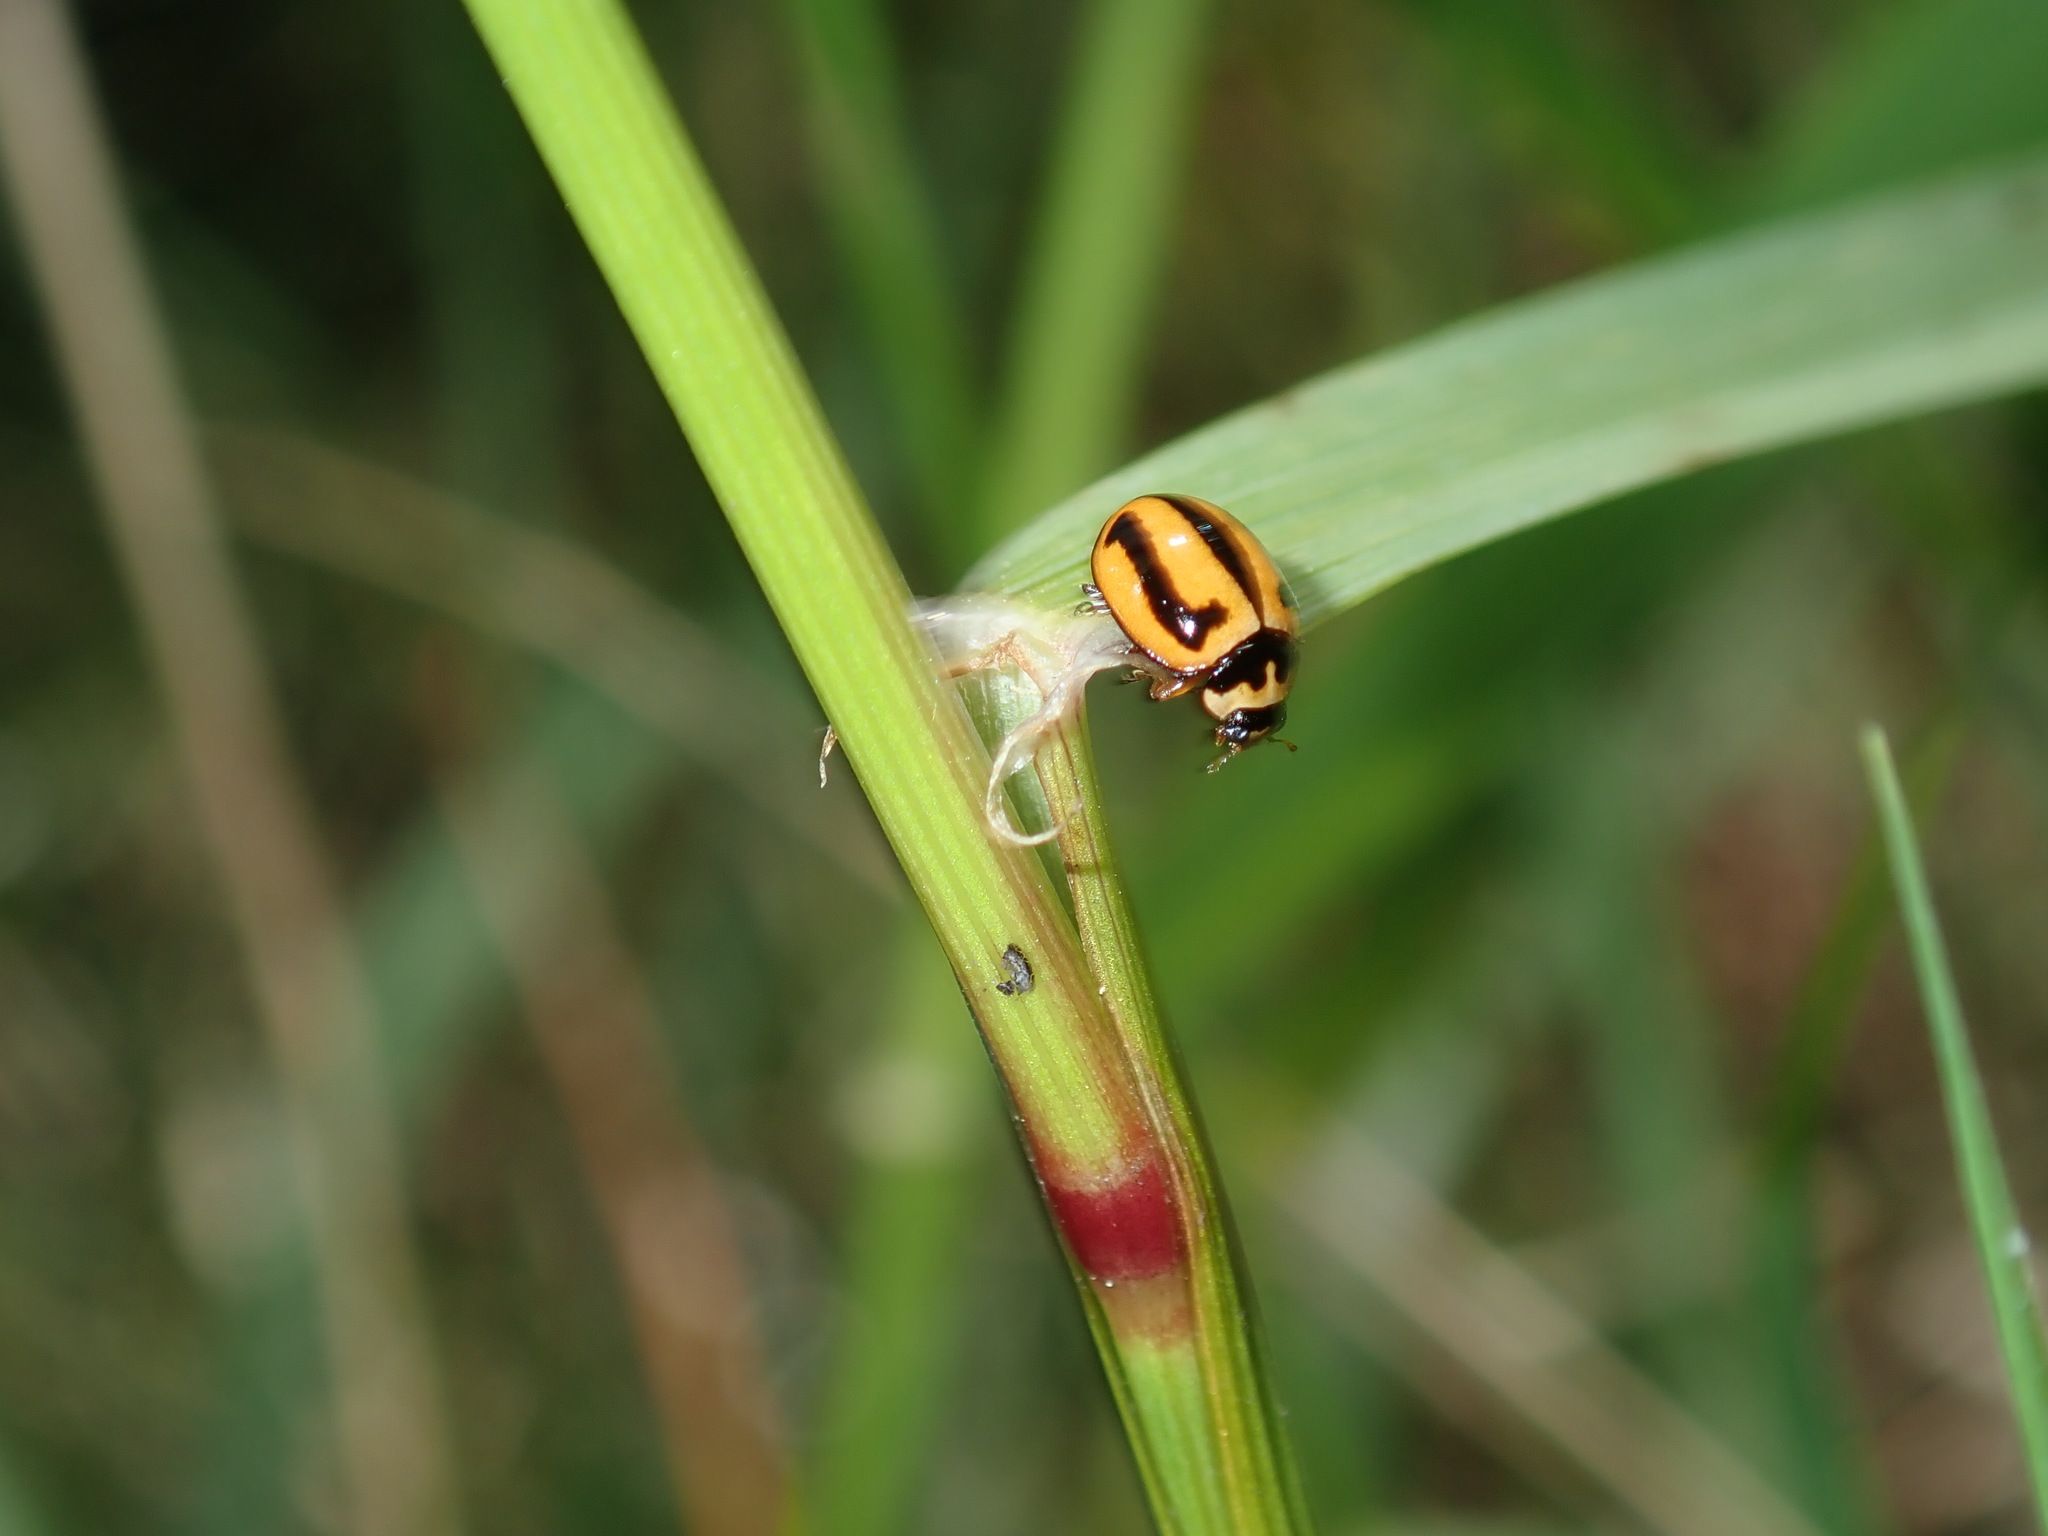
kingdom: Animalia
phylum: Arthropoda
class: Insecta
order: Coleoptera
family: Coccinellidae
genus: Micraspis
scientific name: Micraspis frenata
